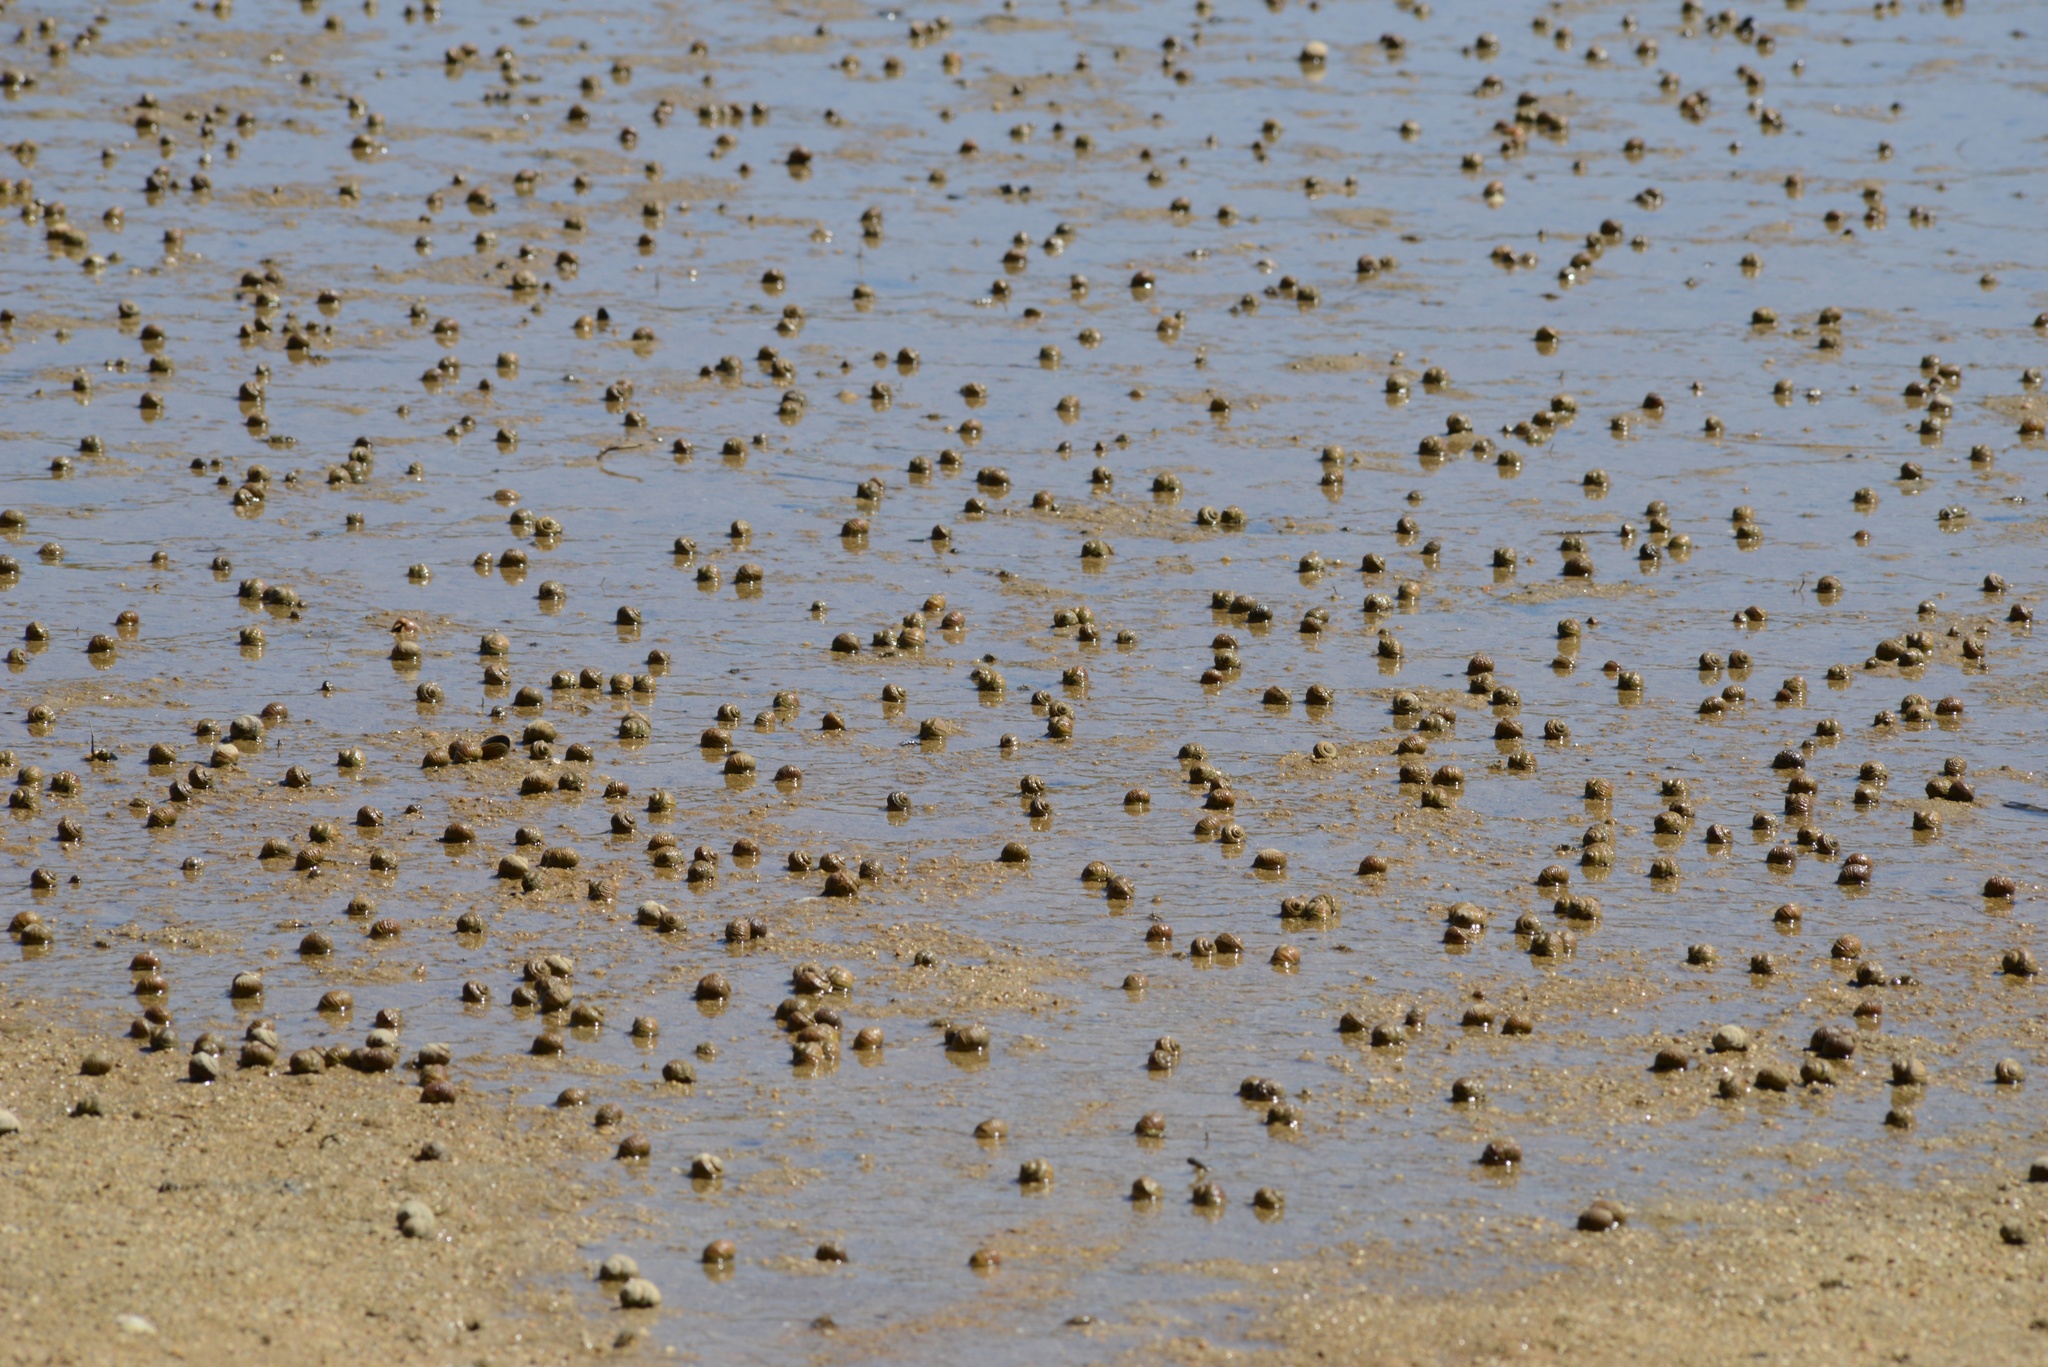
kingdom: Animalia
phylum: Mollusca
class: Gastropoda
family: Amphibolidae
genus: Amphibola
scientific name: Amphibola crenata
